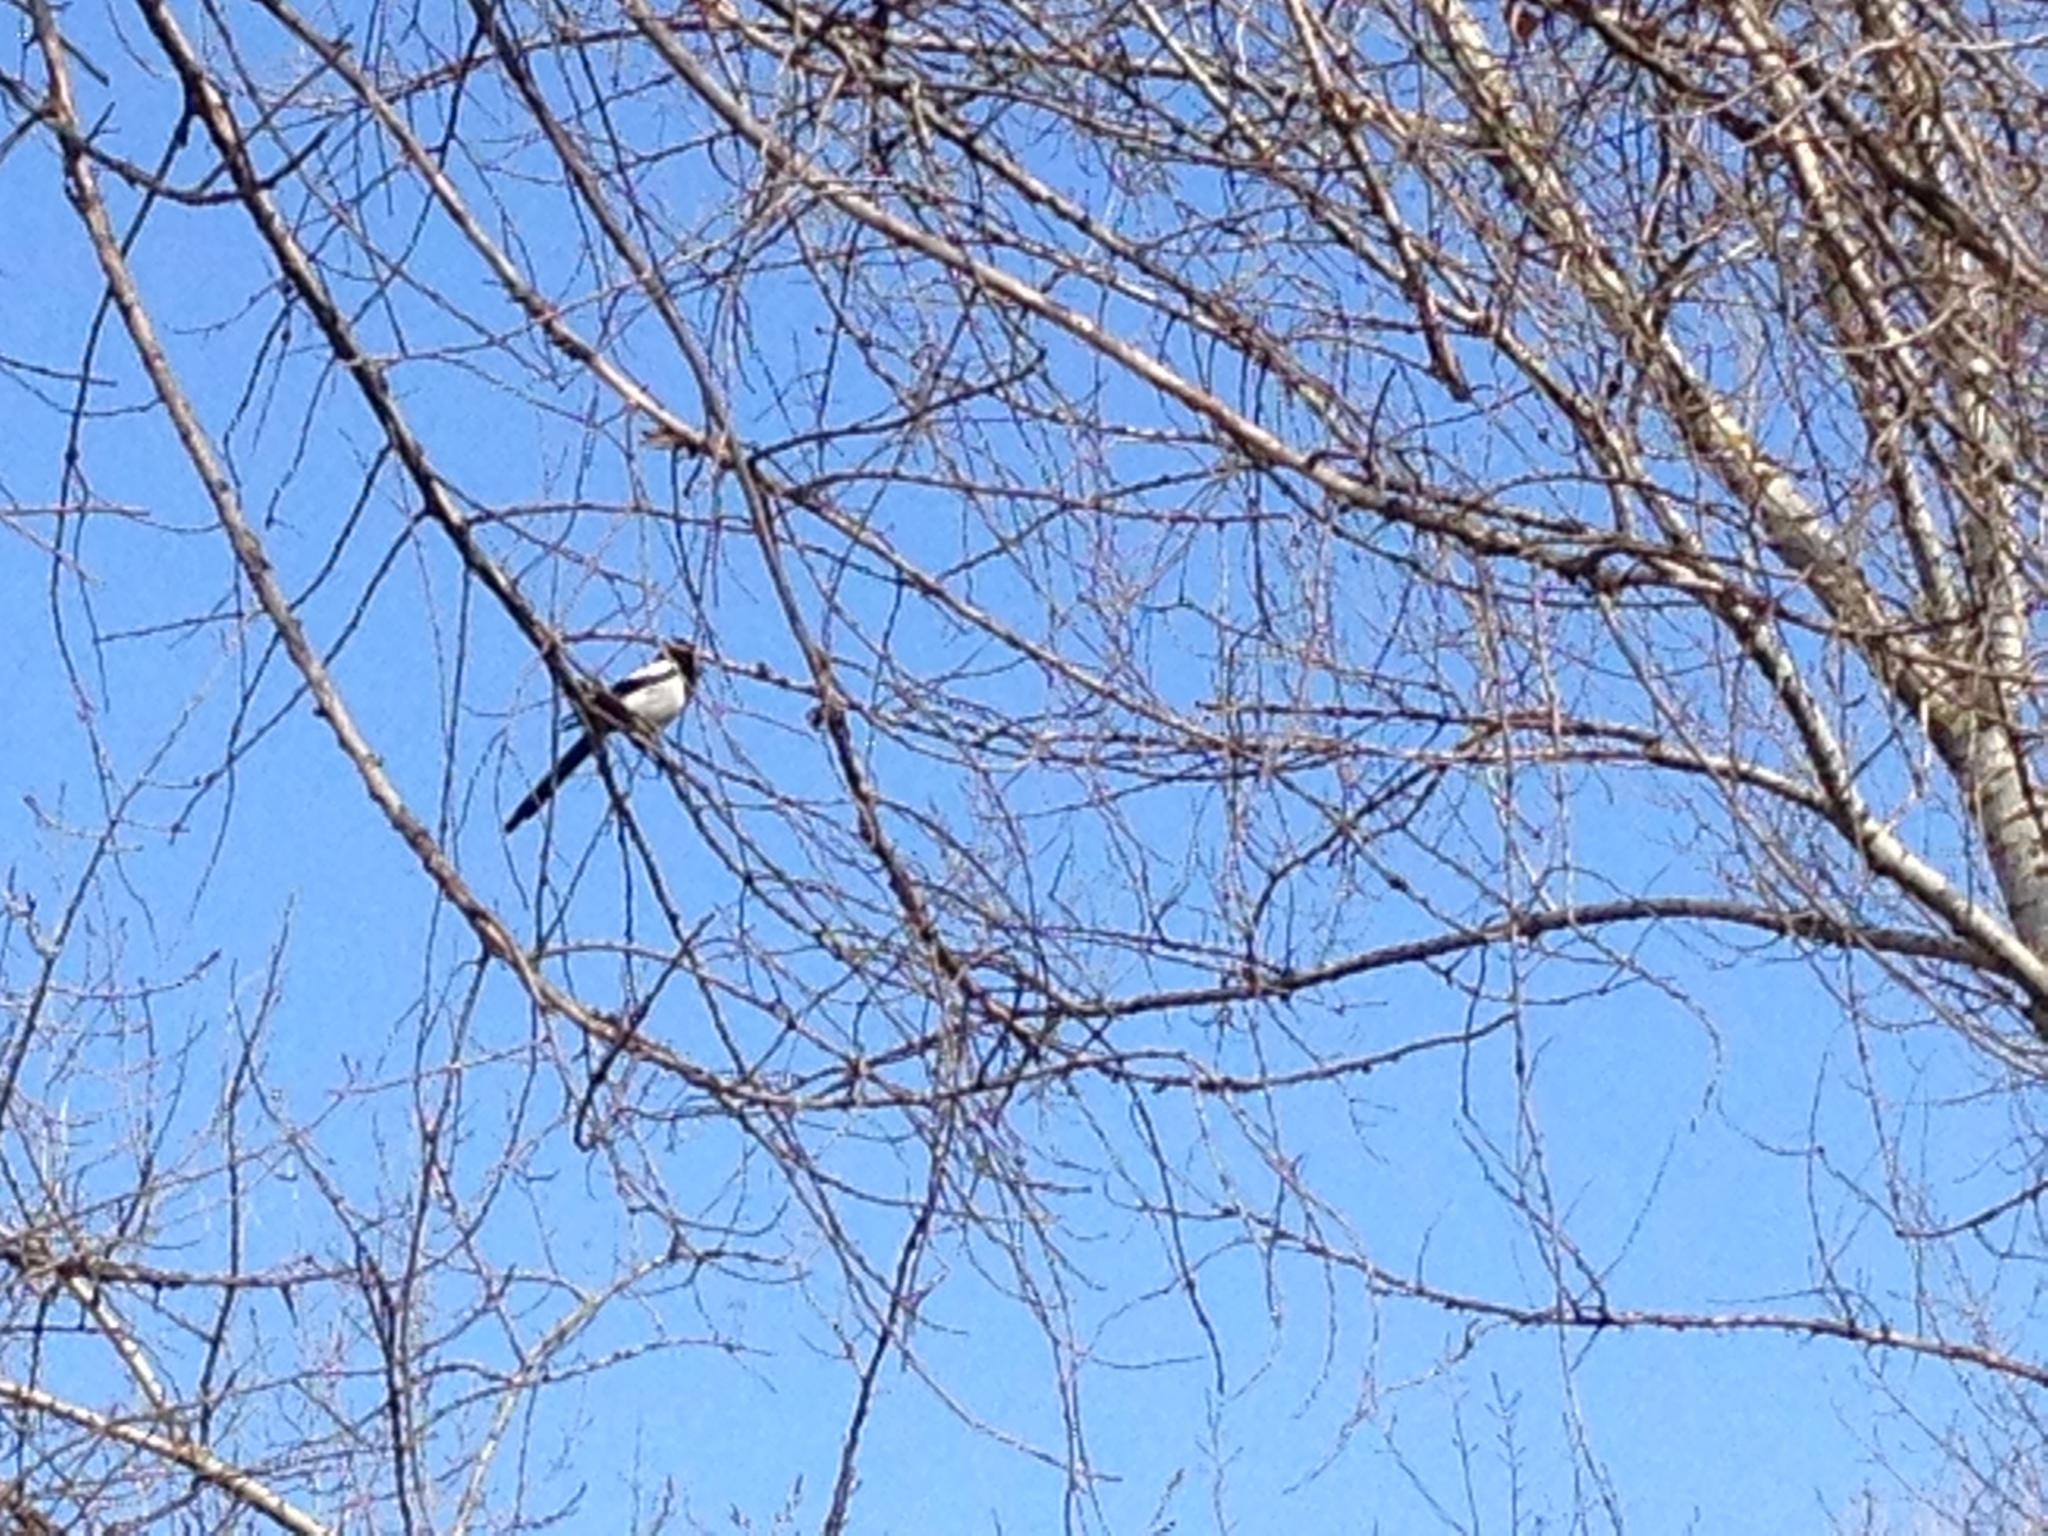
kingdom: Animalia
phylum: Chordata
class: Aves
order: Passeriformes
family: Corvidae
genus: Pica
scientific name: Pica pica
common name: Eurasian magpie
